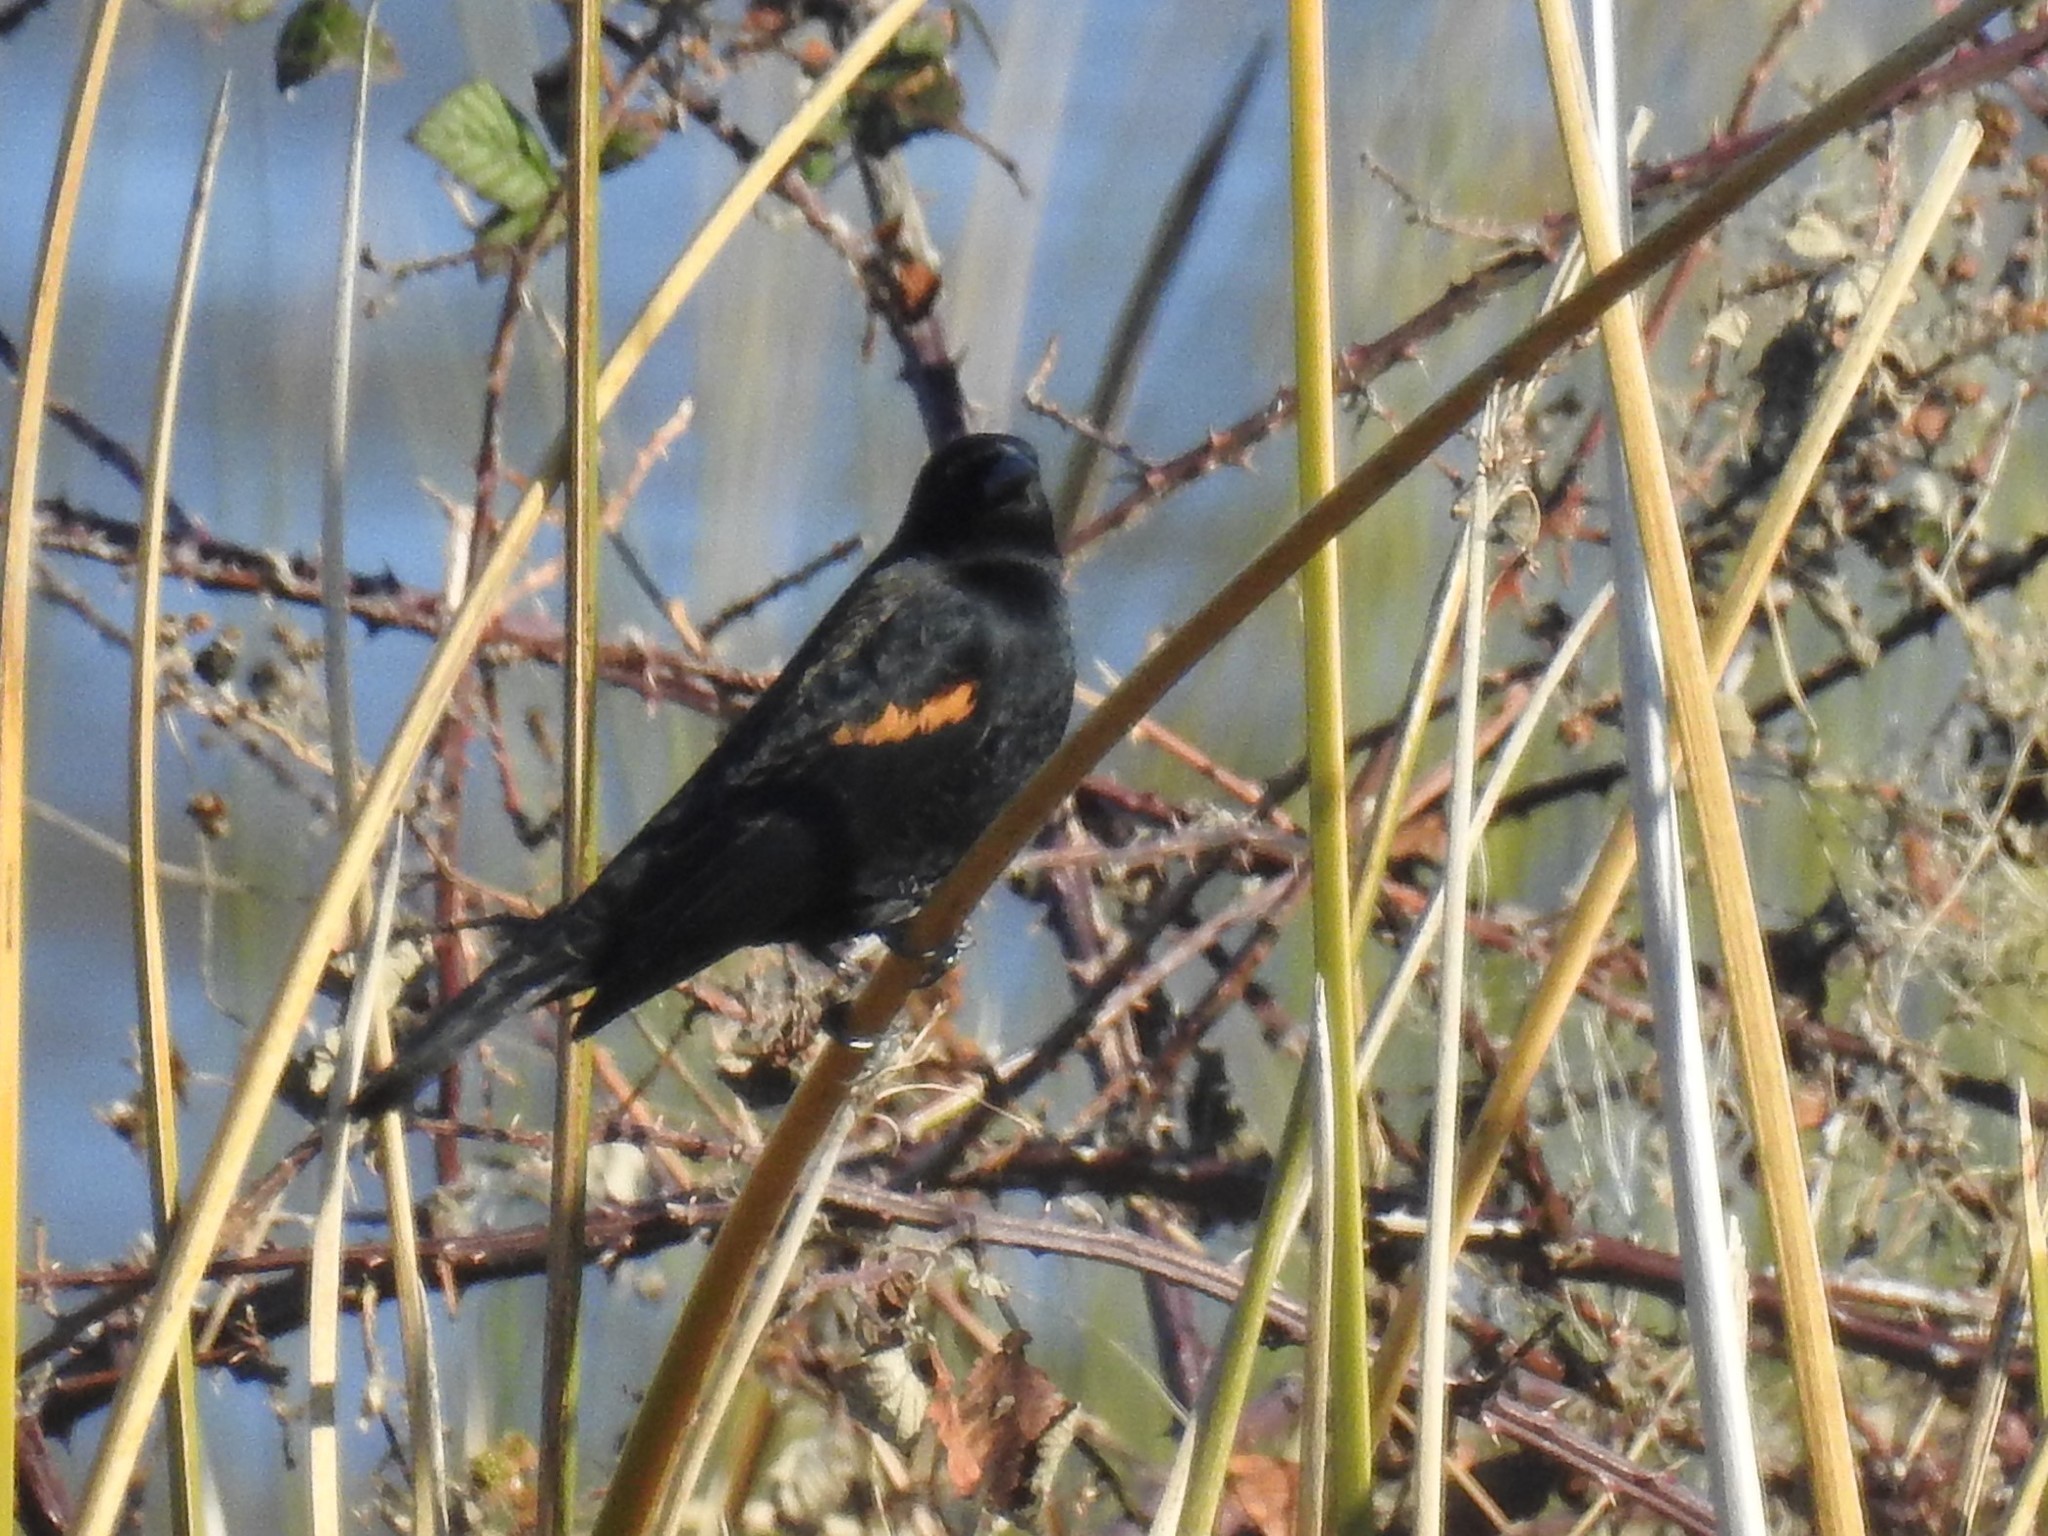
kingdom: Animalia
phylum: Chordata
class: Aves
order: Passeriformes
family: Icteridae
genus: Agelaius
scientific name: Agelaius phoeniceus
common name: Red-winged blackbird
